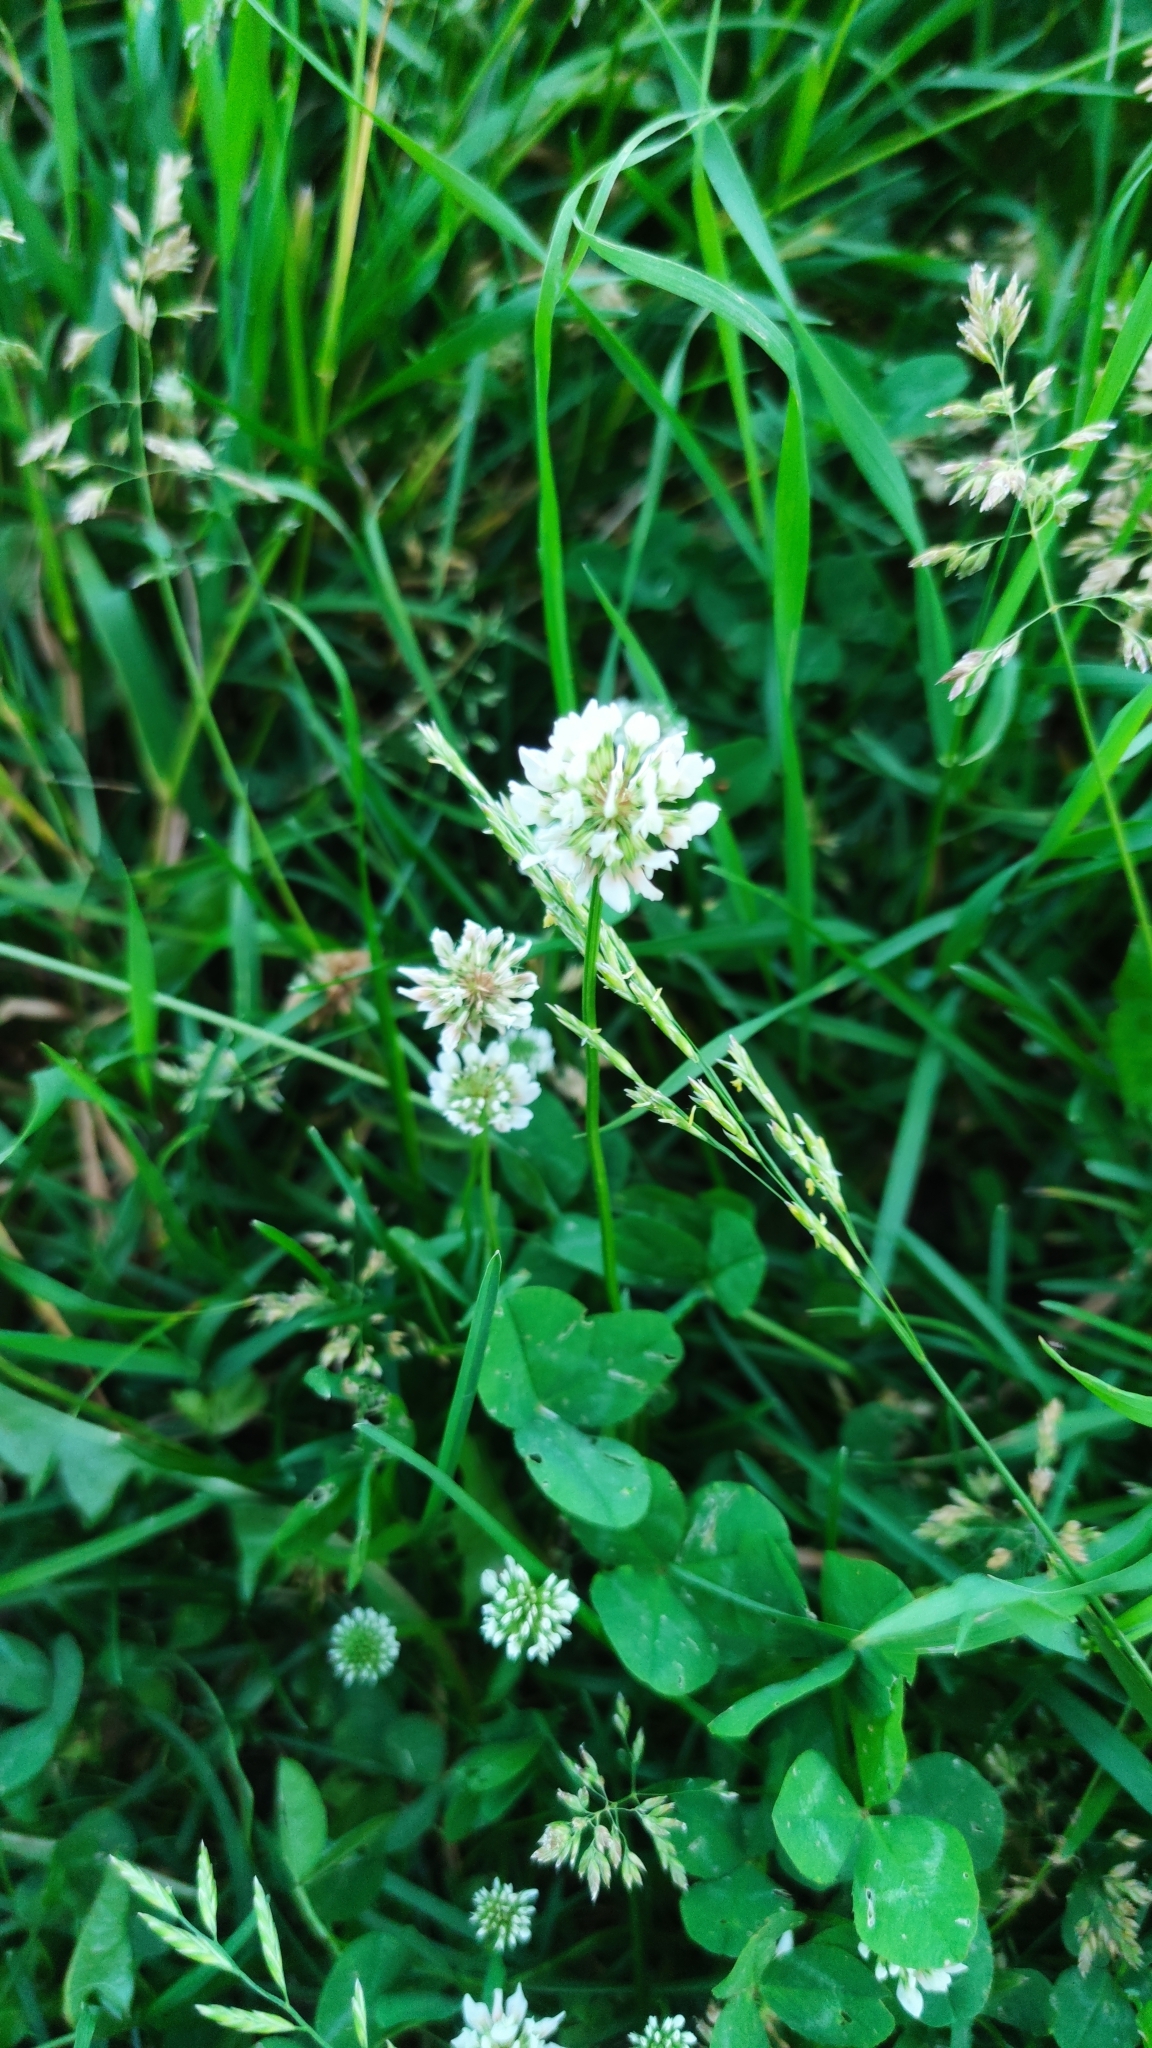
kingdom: Plantae
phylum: Tracheophyta
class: Magnoliopsida
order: Fabales
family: Fabaceae
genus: Trifolium
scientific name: Trifolium repens
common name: White clover
